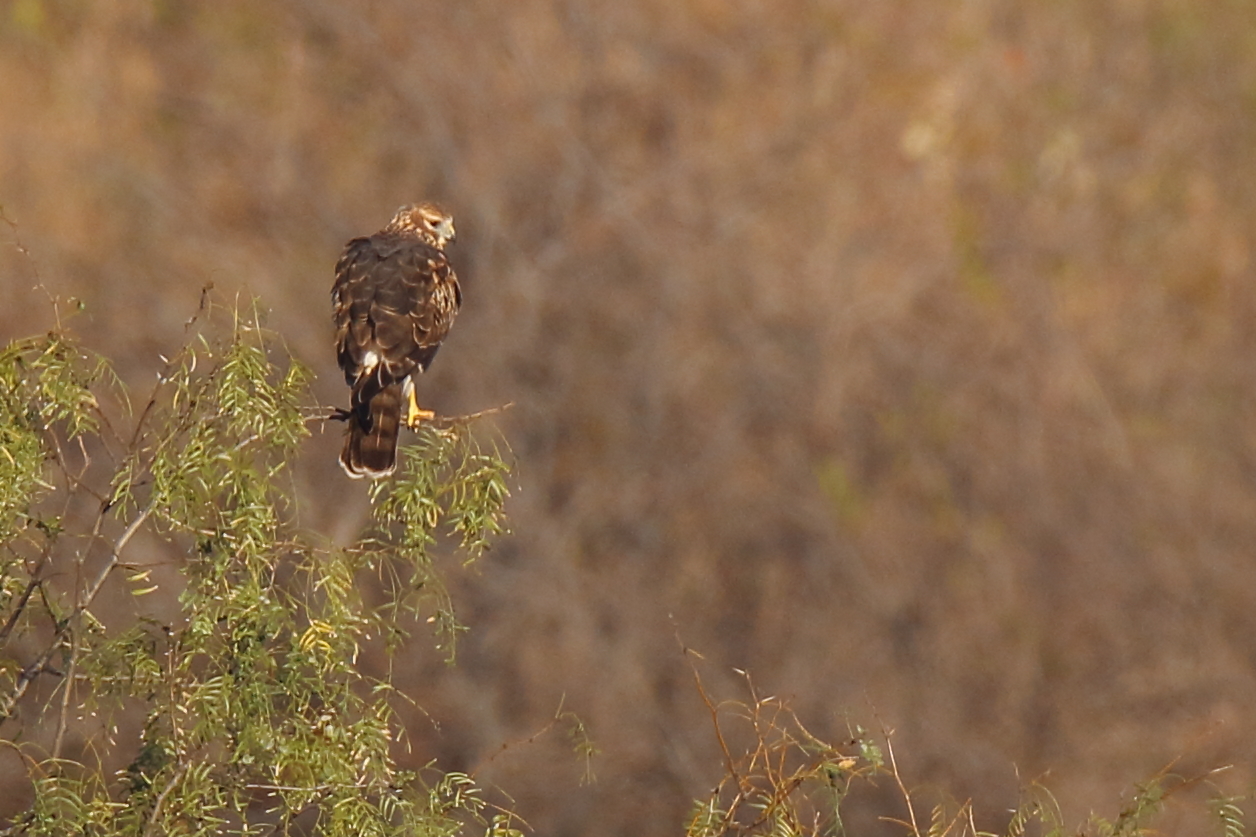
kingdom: Animalia
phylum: Chordata
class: Aves
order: Accipitriformes
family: Accipitridae
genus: Circus
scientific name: Circus cyaneus
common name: Hen harrier
